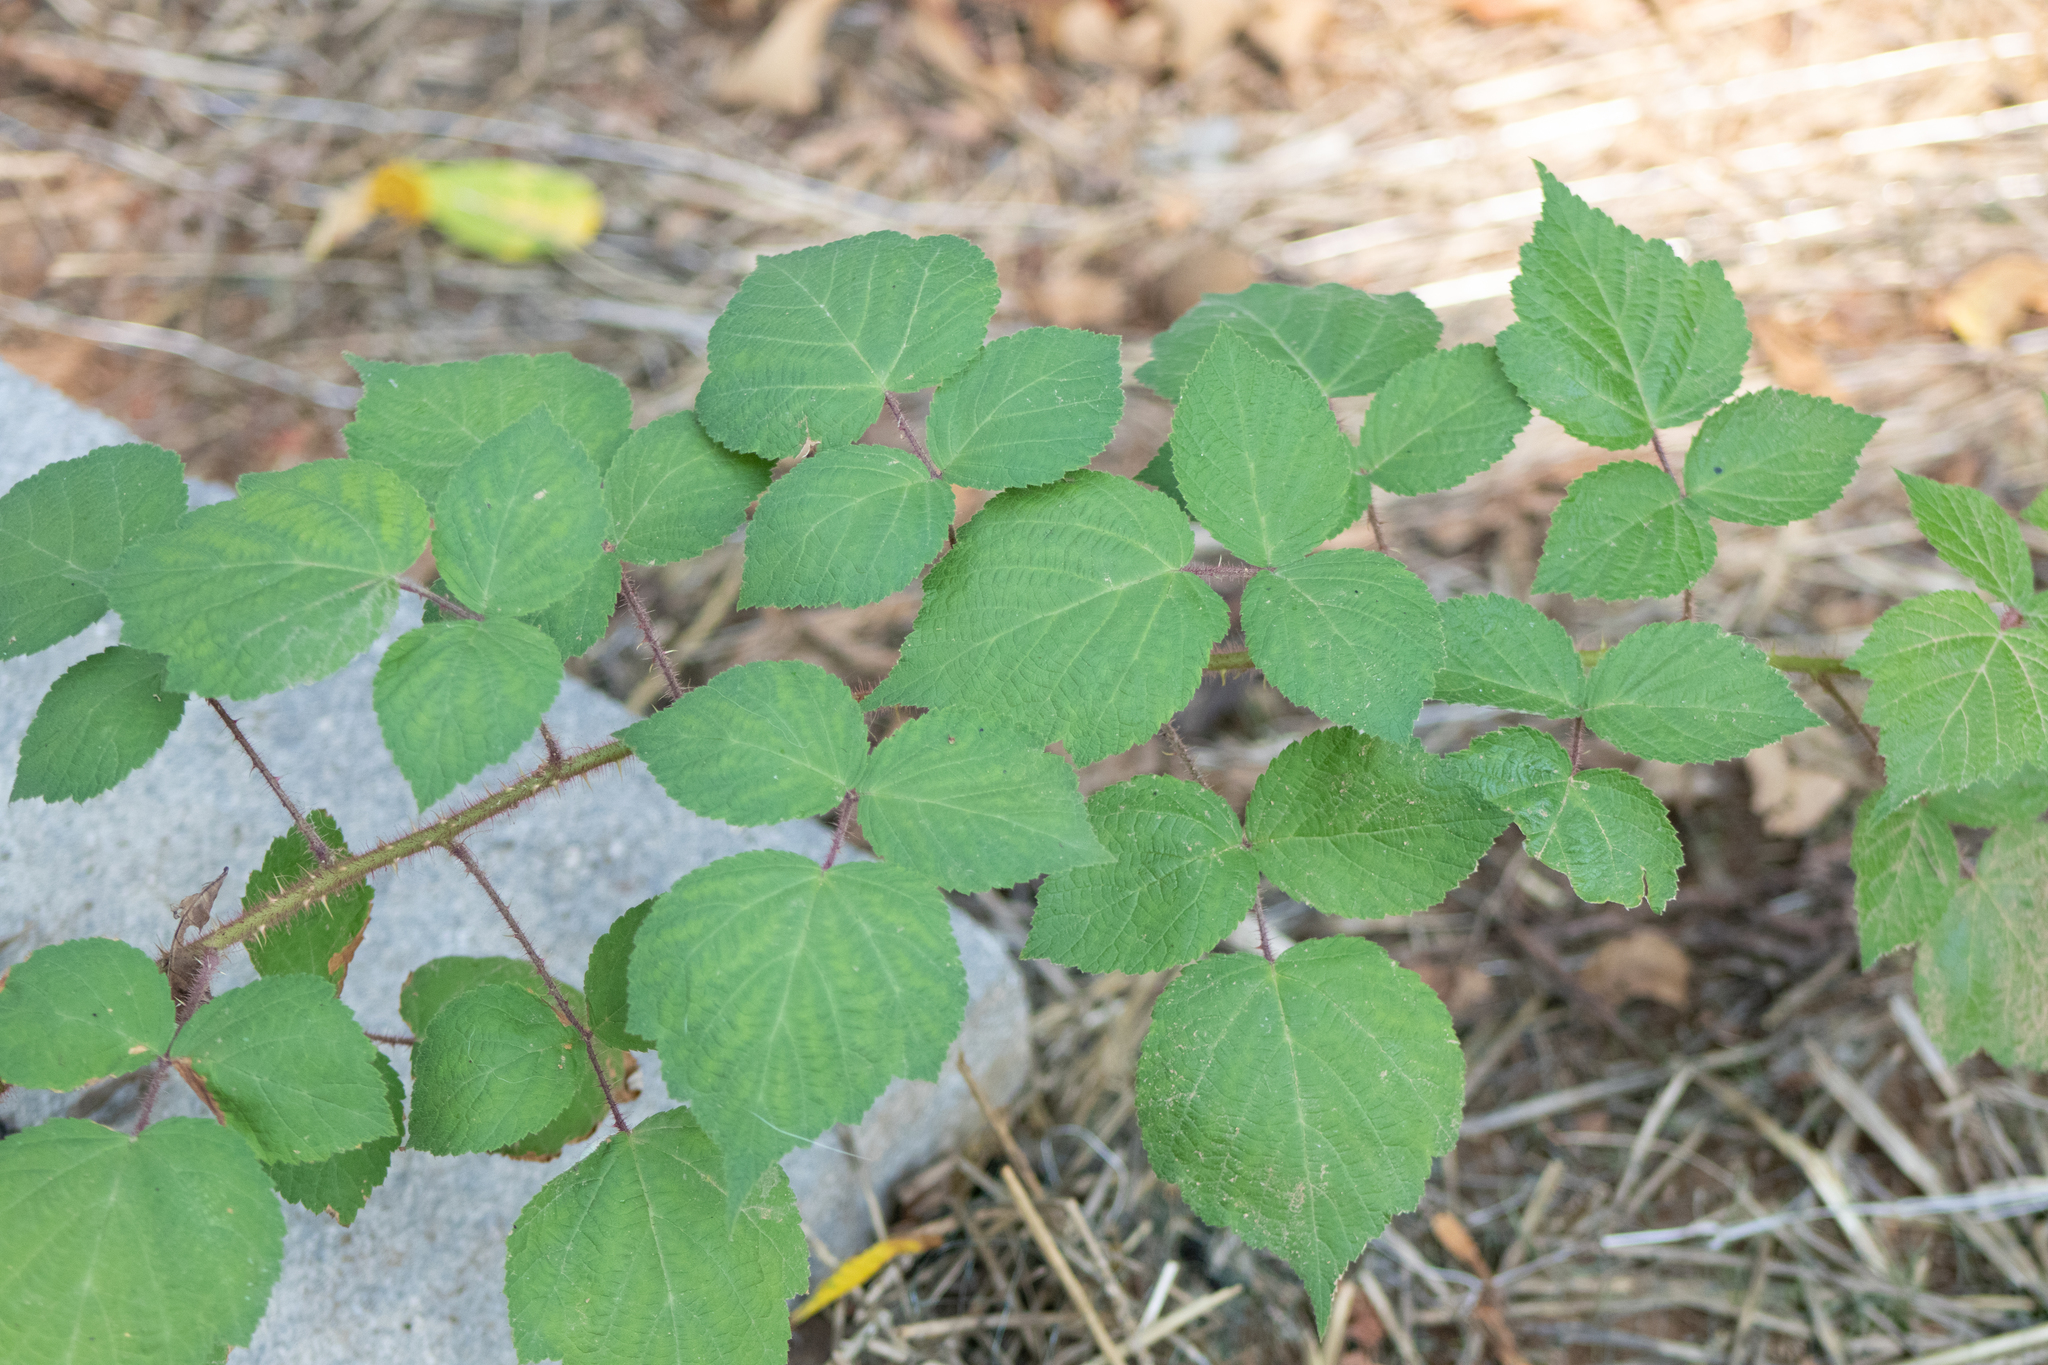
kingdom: Plantae
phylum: Tracheophyta
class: Magnoliopsida
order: Rosales
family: Rosaceae
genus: Rubus
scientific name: Rubus phoenicolasius
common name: Japanese wineberry
